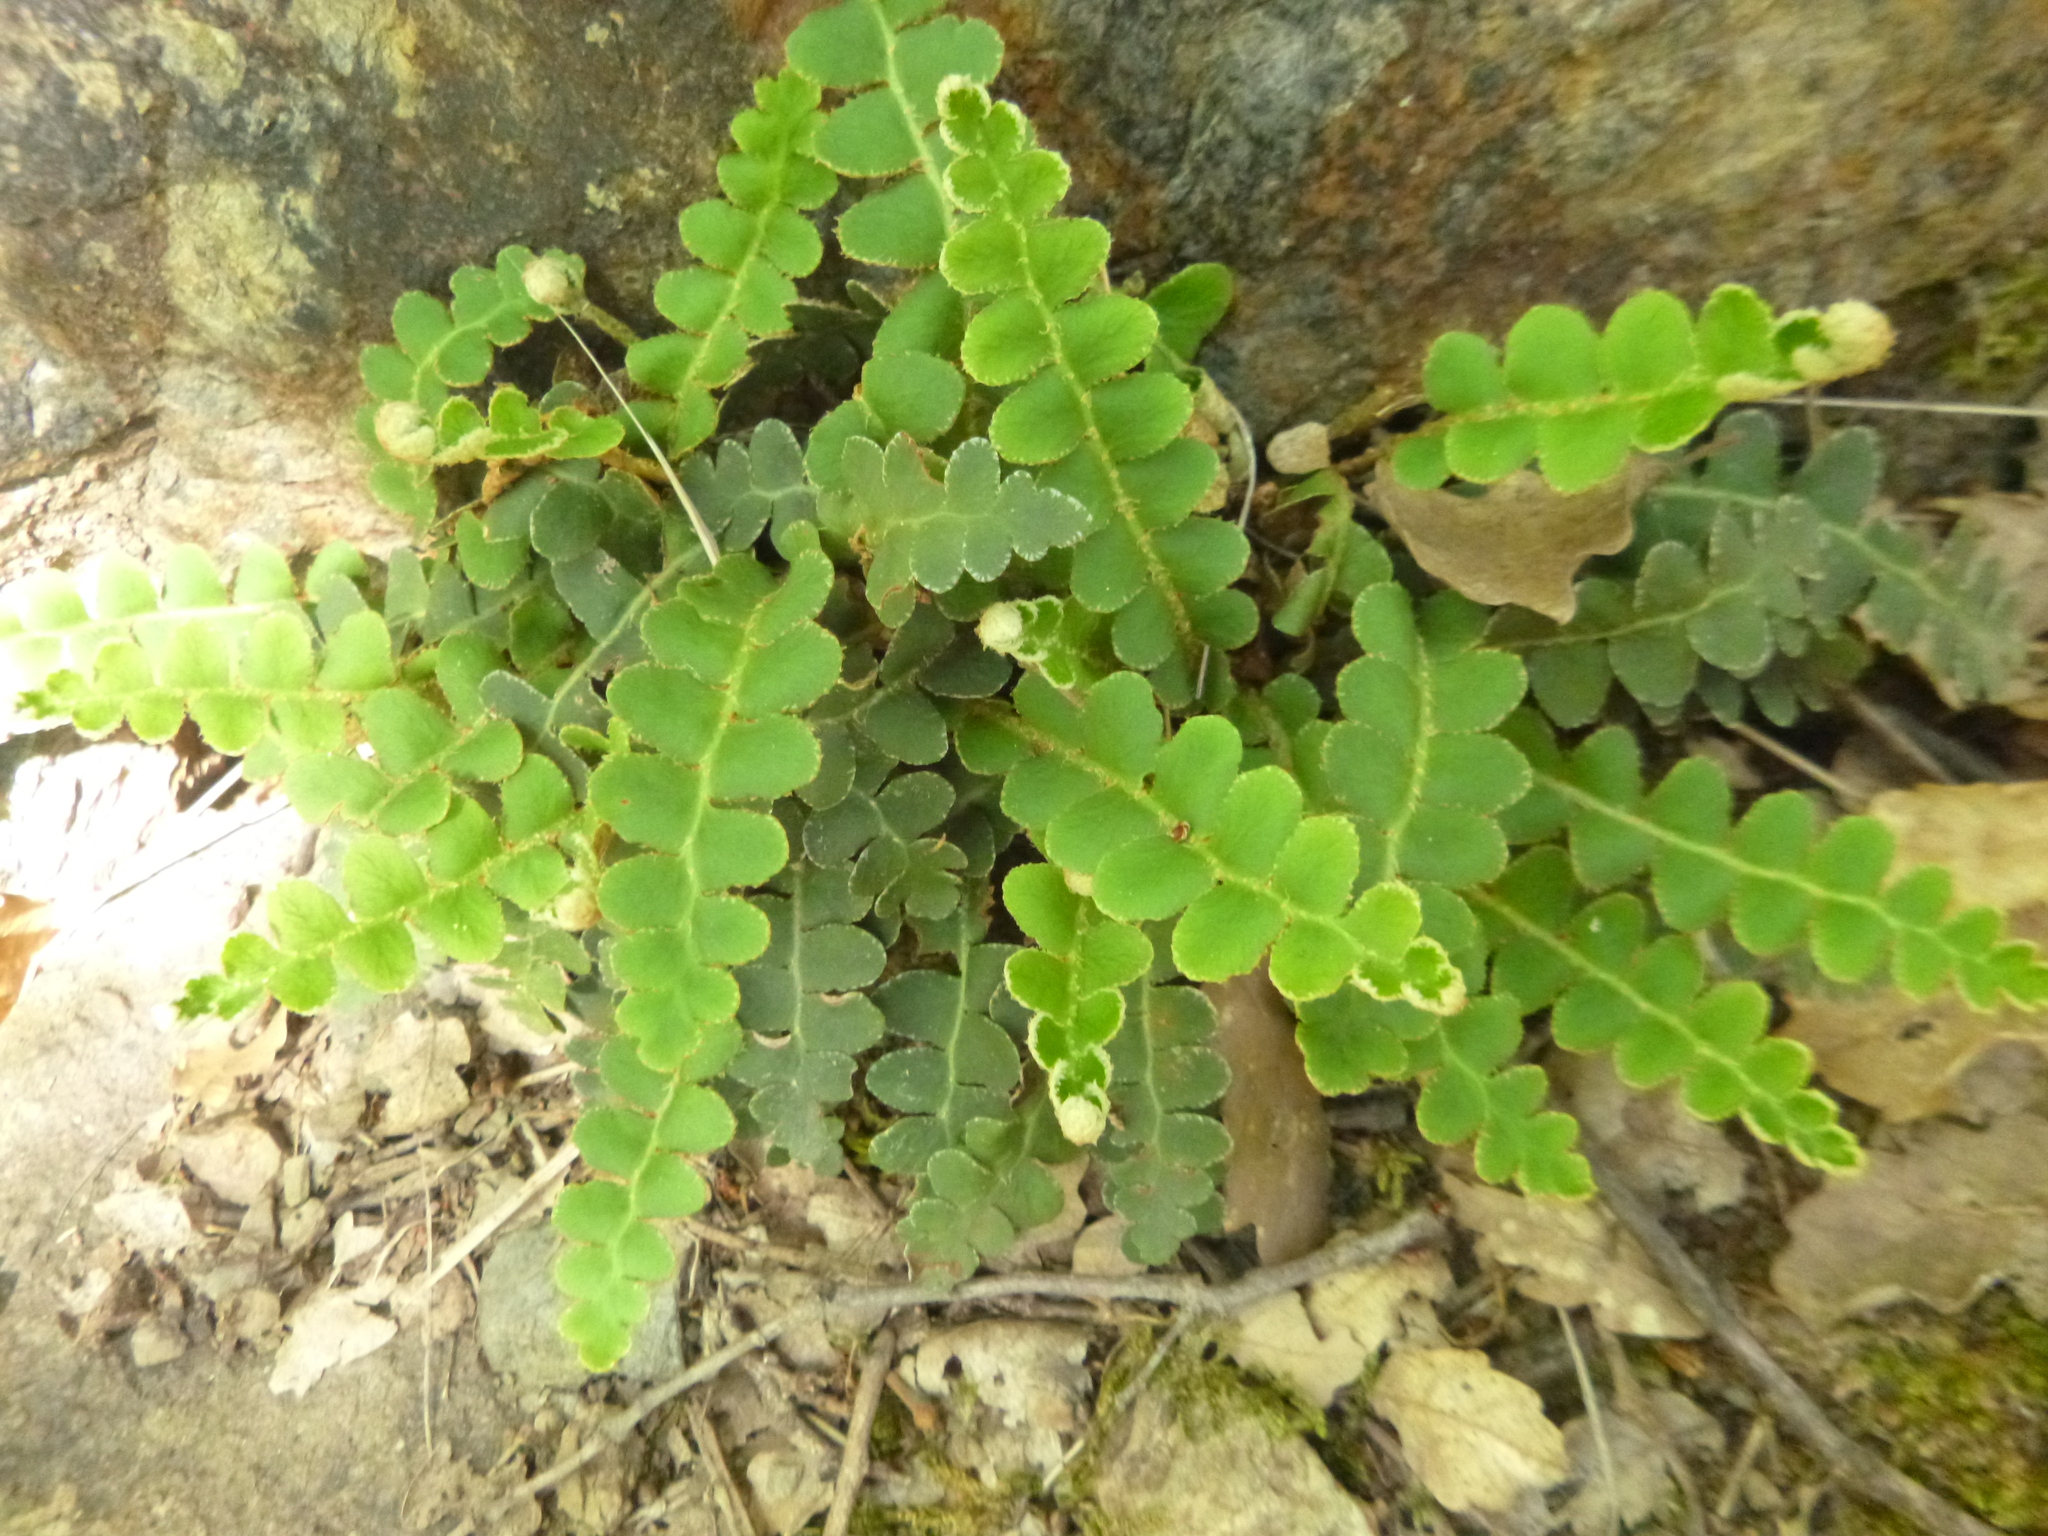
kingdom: Plantae
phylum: Tracheophyta
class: Polypodiopsida
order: Polypodiales
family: Aspleniaceae
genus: Asplenium
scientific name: Asplenium ceterach
